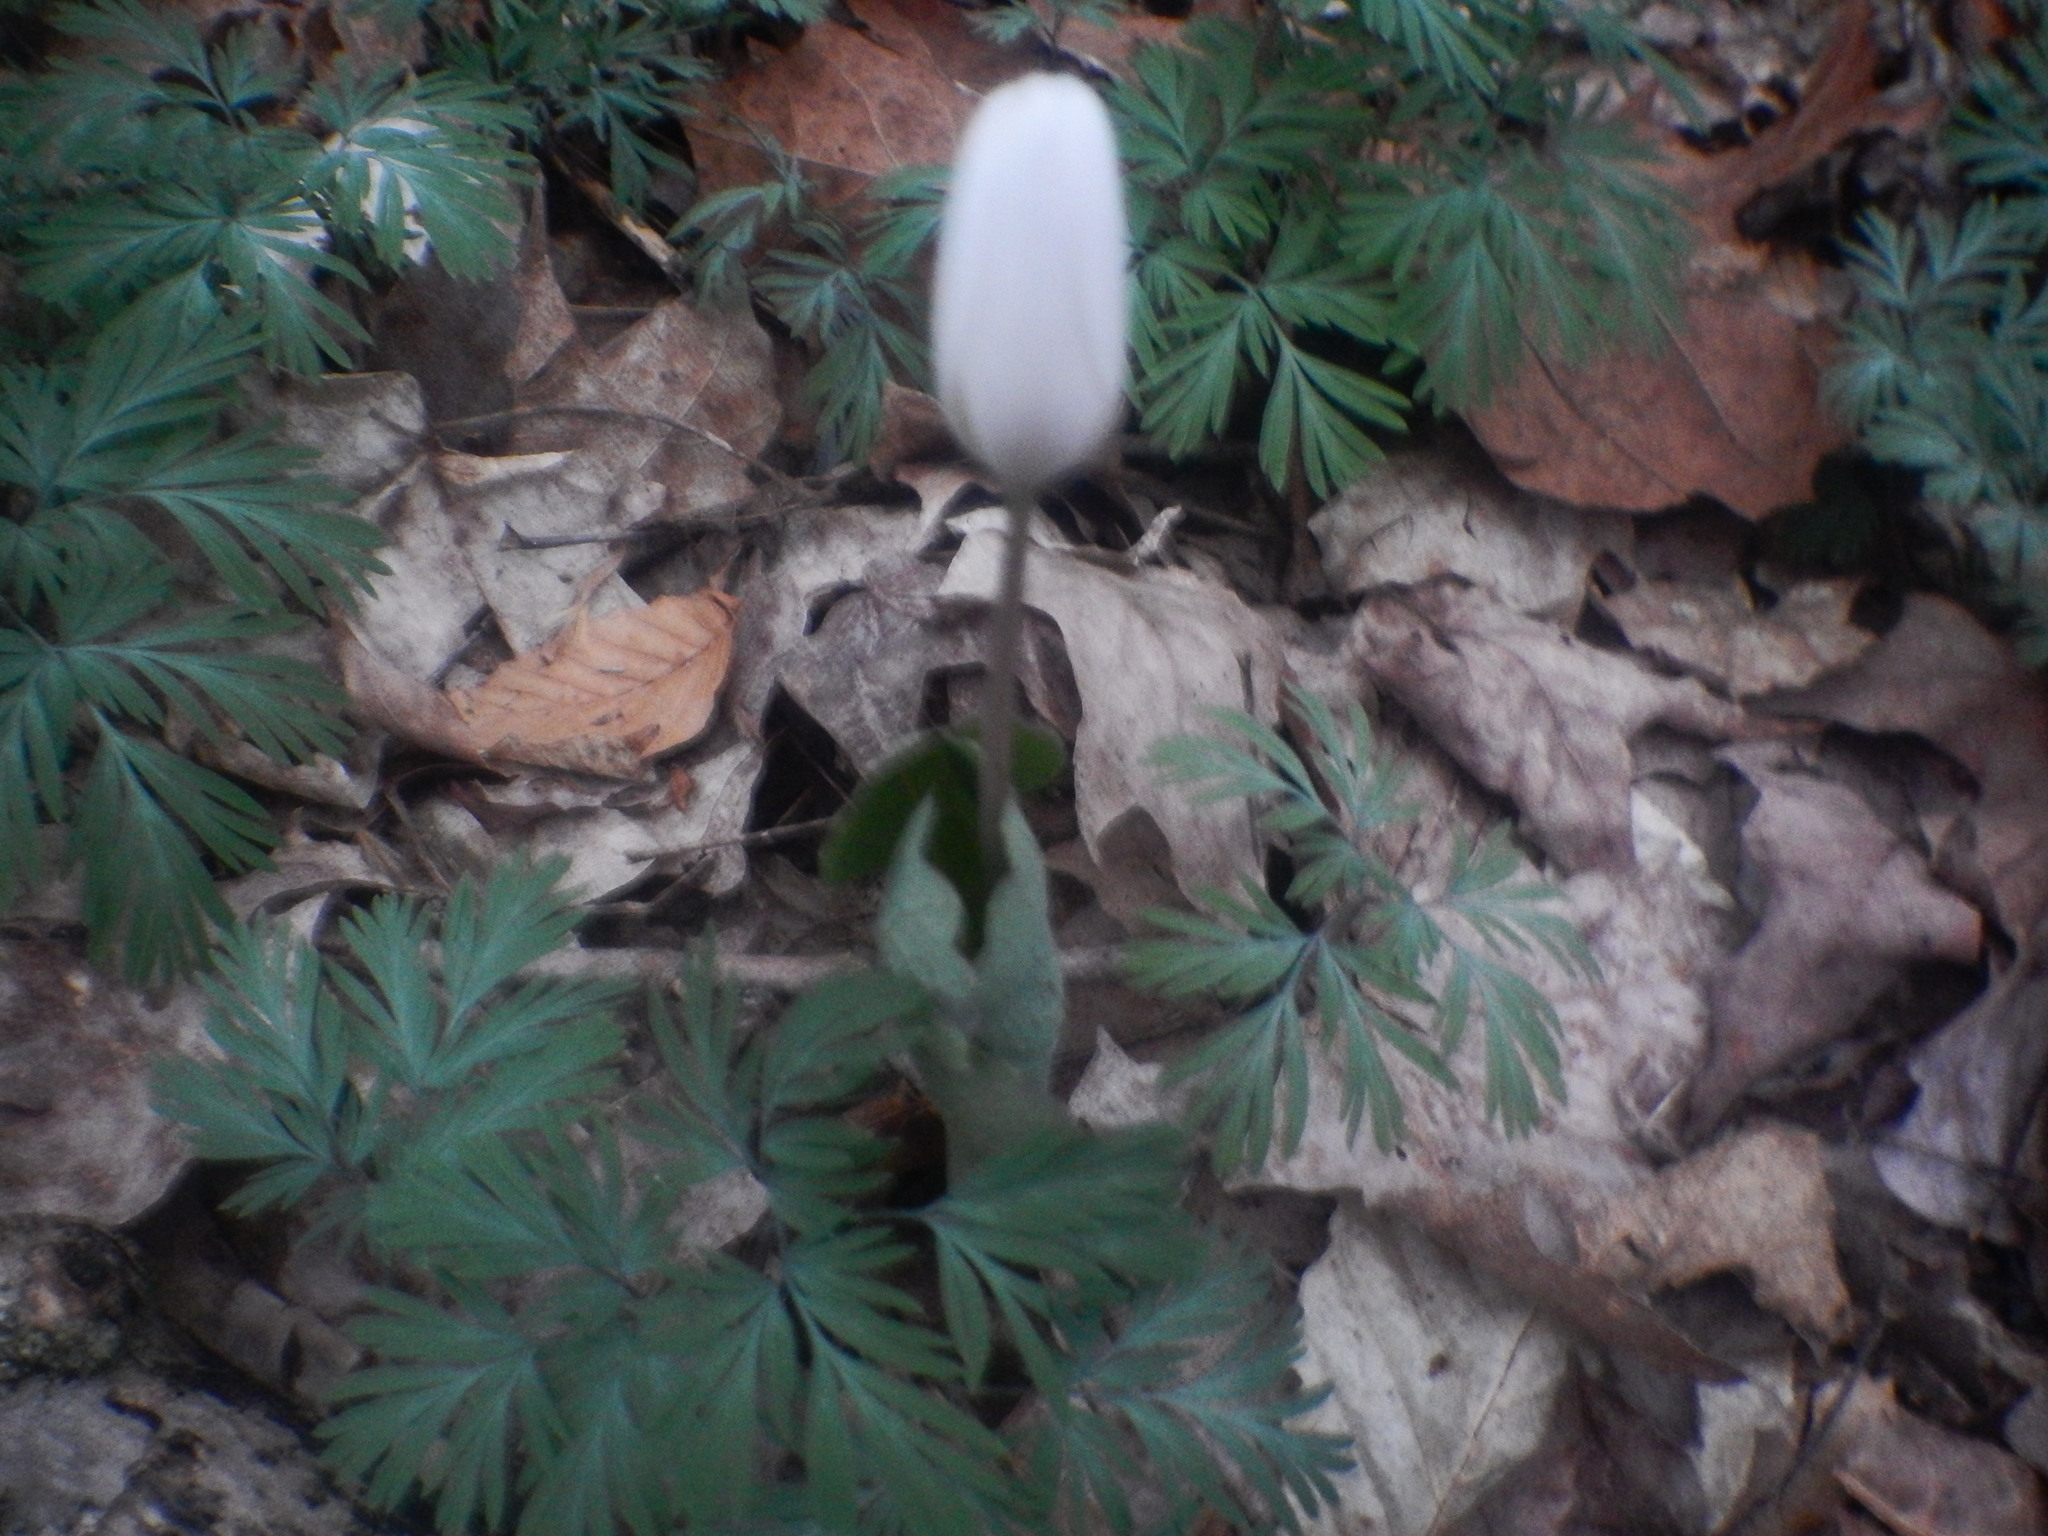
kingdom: Plantae
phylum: Tracheophyta
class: Magnoliopsida
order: Ranunculales
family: Papaveraceae
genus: Sanguinaria
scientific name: Sanguinaria canadensis
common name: Bloodroot
